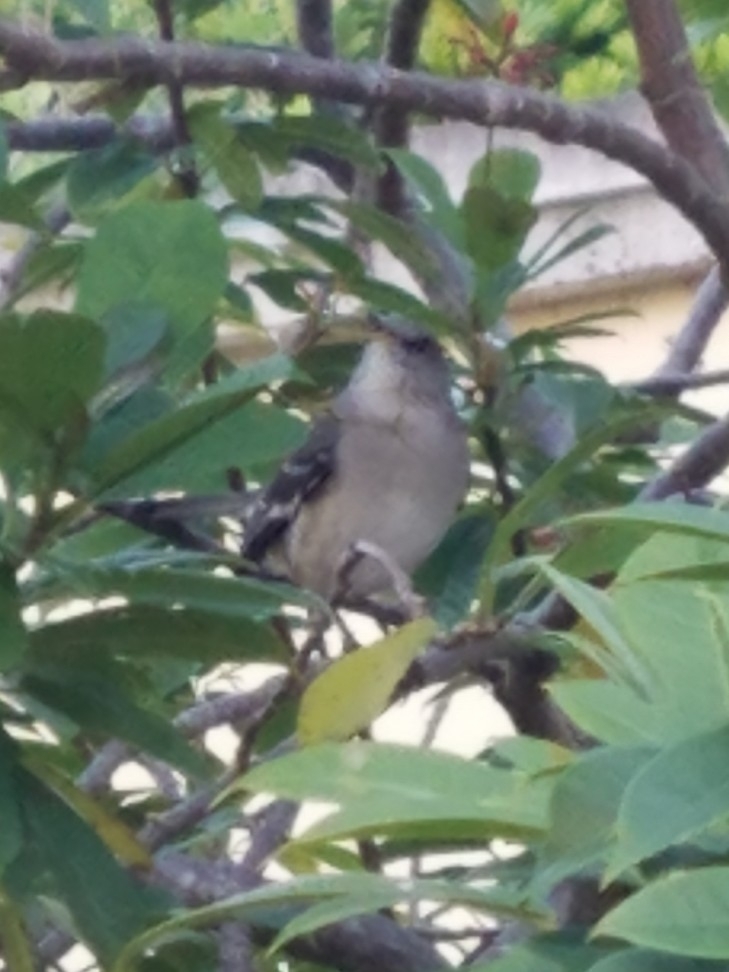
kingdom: Animalia
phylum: Chordata
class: Aves
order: Passeriformes
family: Mimidae
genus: Mimus
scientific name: Mimus polyglottos
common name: Northern mockingbird
